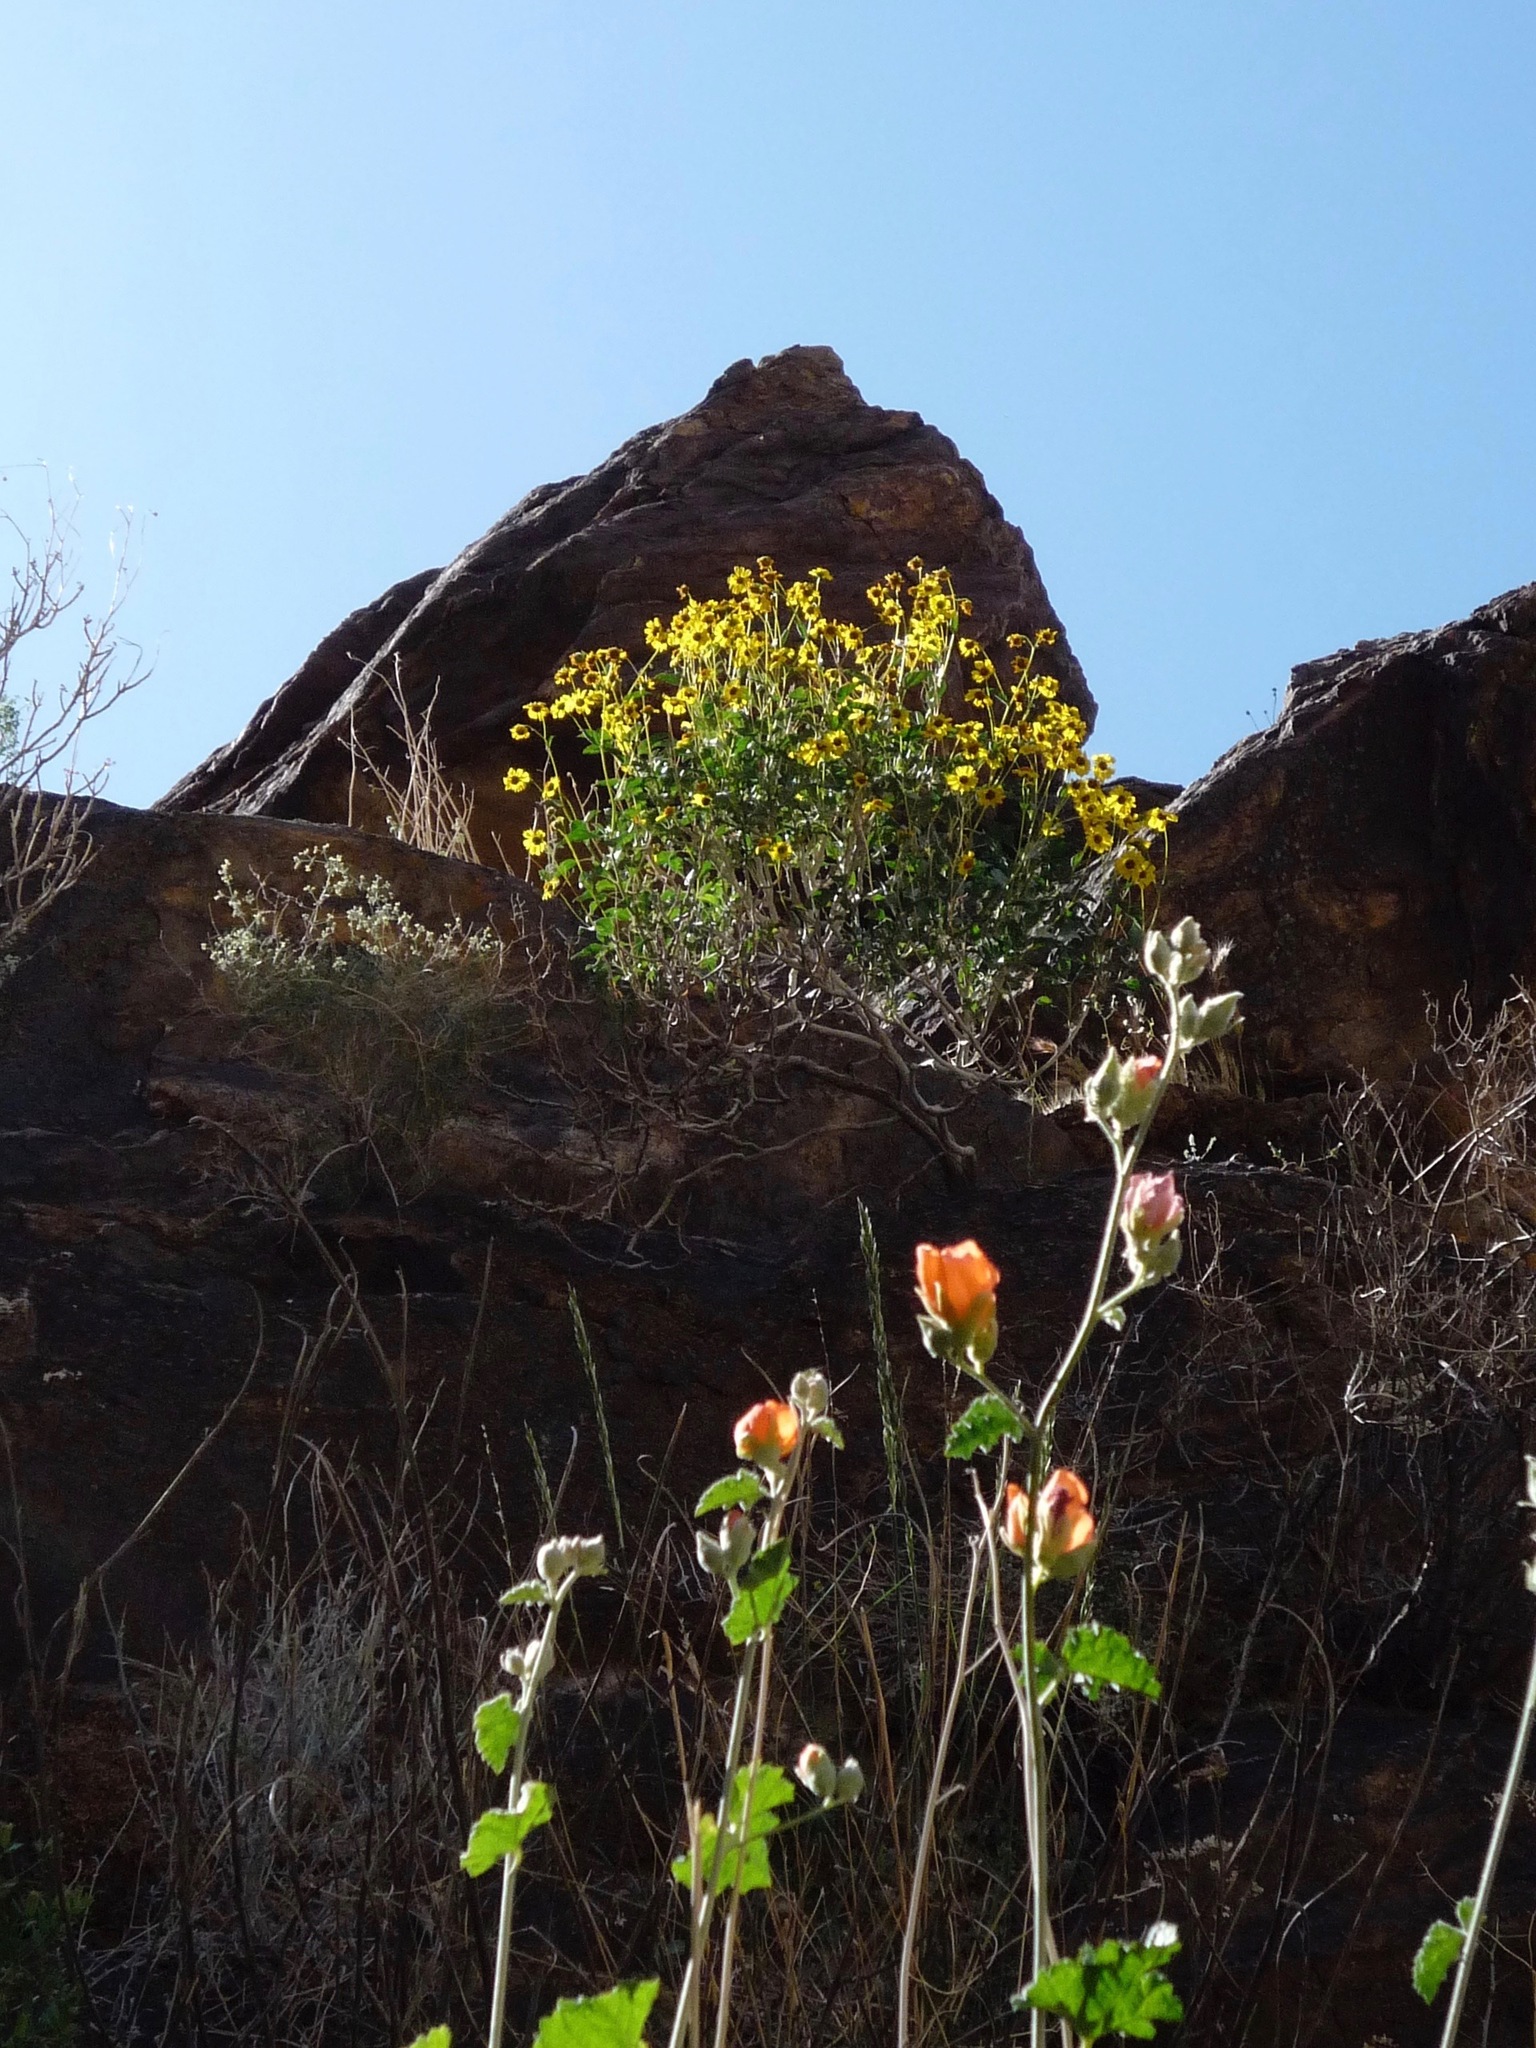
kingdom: Plantae
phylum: Tracheophyta
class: Magnoliopsida
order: Malvales
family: Malvaceae
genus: Sphaeralcea
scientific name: Sphaeralcea ambigua
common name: Apricot globe-mallow
